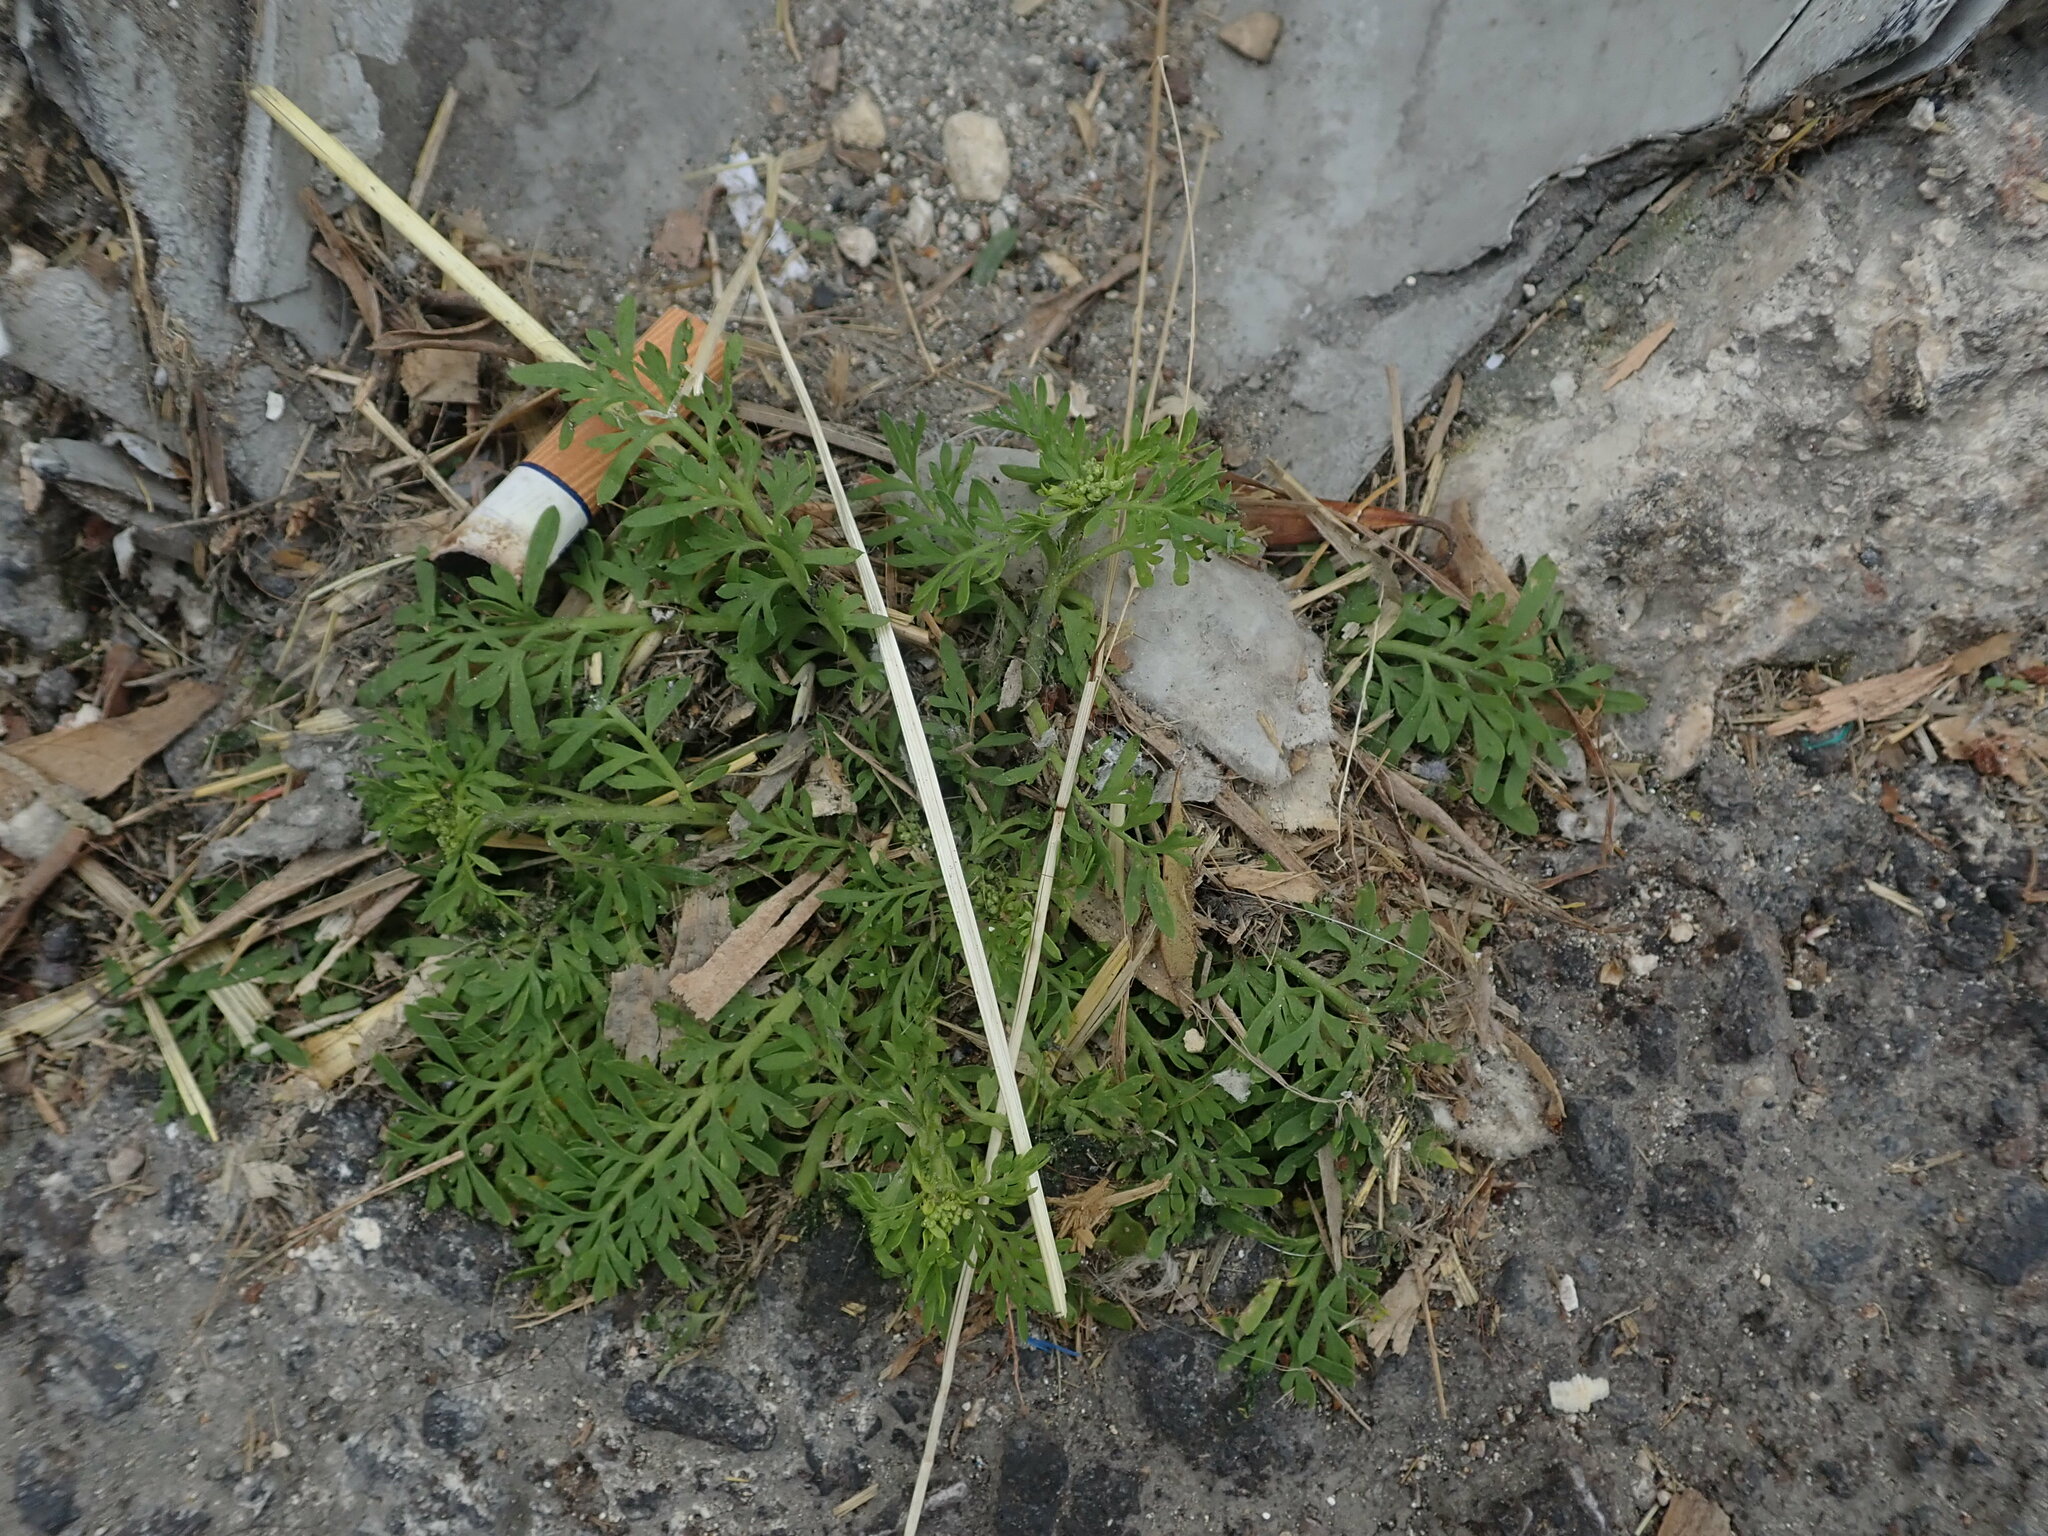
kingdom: Plantae
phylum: Tracheophyta
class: Magnoliopsida
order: Brassicales
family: Brassicaceae
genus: Lepidium
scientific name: Lepidium didymum
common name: Lesser swinecress
